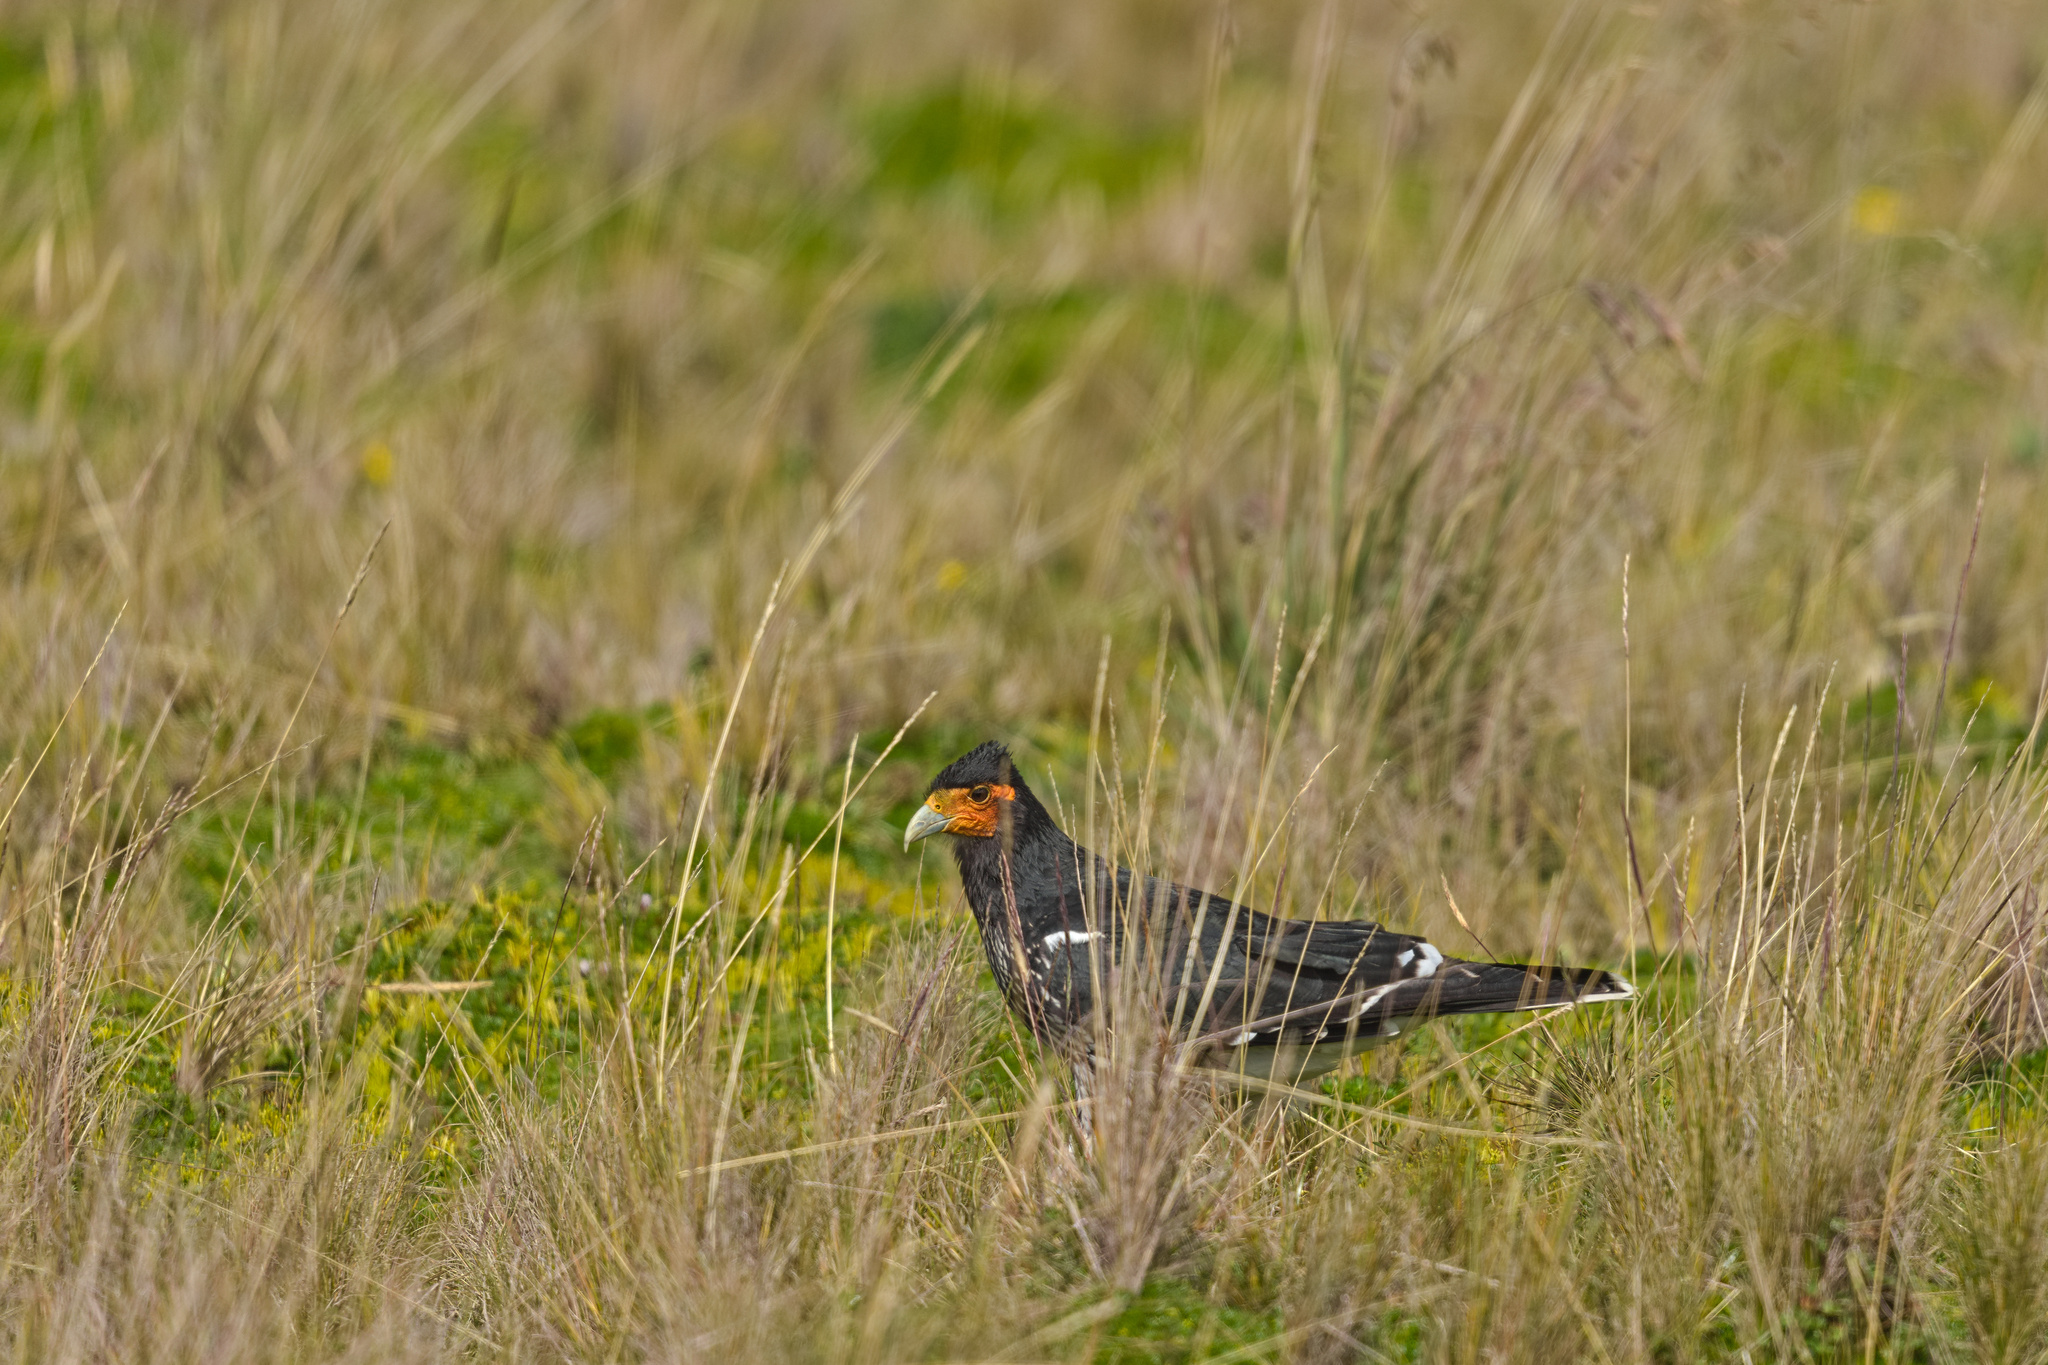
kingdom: Animalia
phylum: Chordata
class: Aves
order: Falconiformes
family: Falconidae
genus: Daptrius
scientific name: Daptrius
